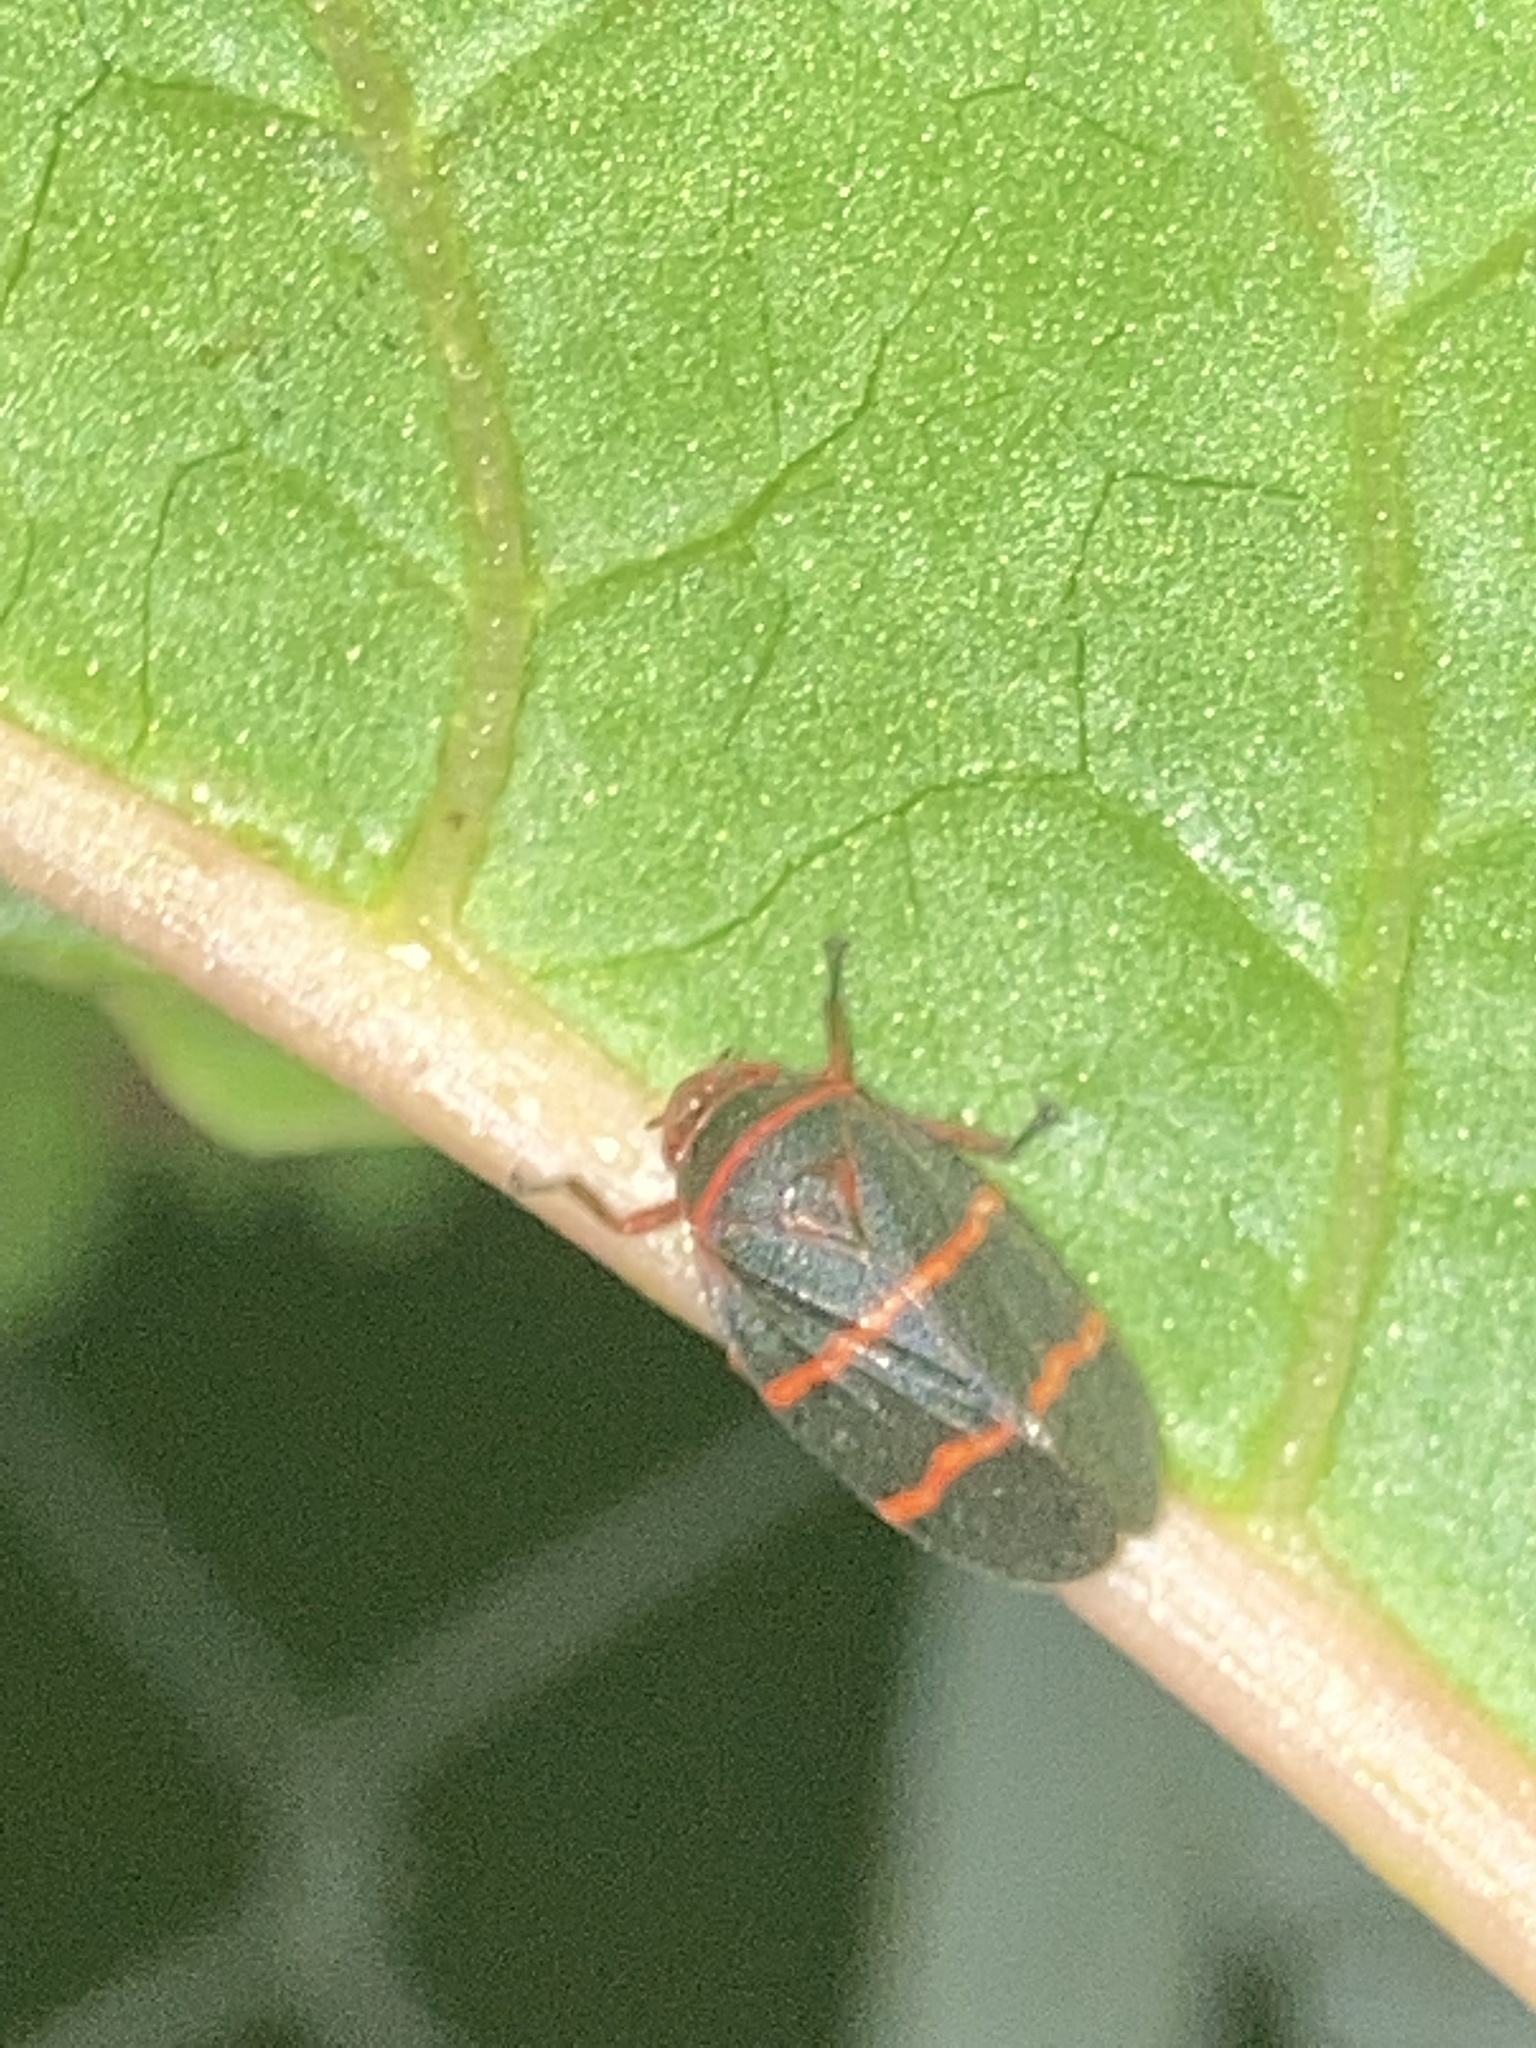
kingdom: Animalia
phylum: Arthropoda
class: Insecta
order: Hemiptera
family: Cercopidae
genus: Prosapia
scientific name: Prosapia bicincta
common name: Twolined spittlebug
